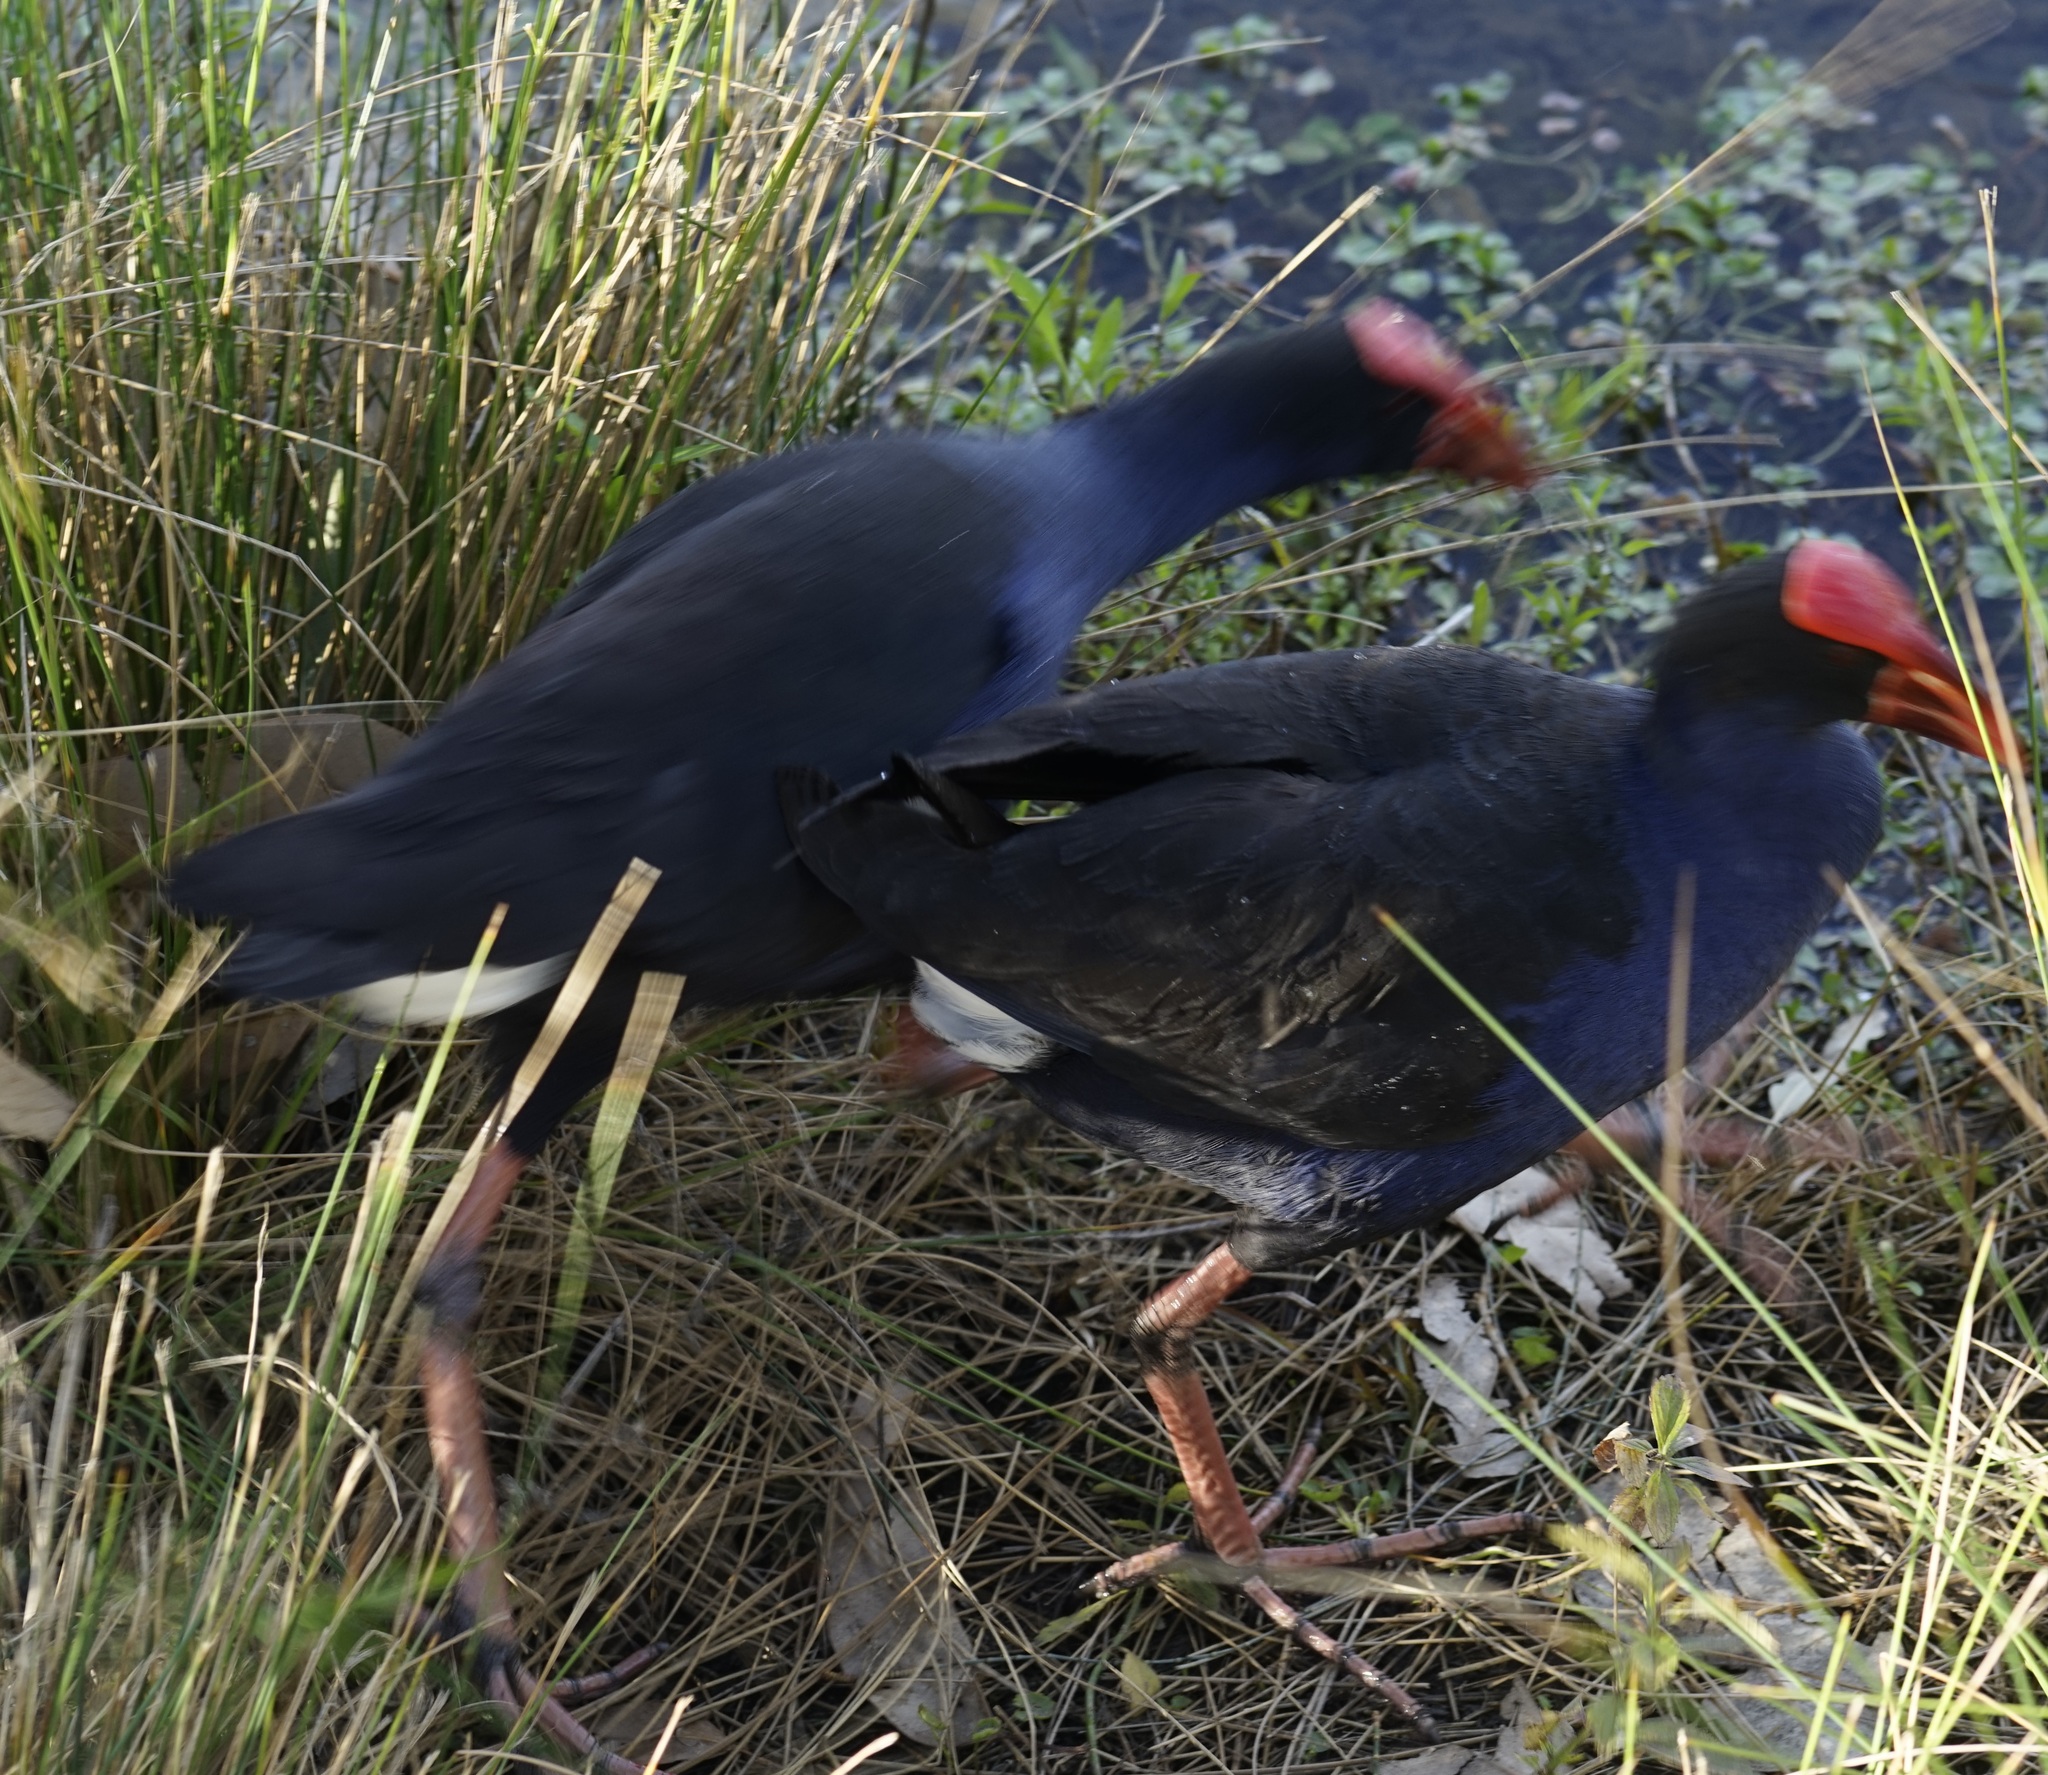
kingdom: Animalia
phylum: Chordata
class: Aves
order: Gruiformes
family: Rallidae
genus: Porphyrio
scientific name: Porphyrio melanotus
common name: Australasian swamphen
